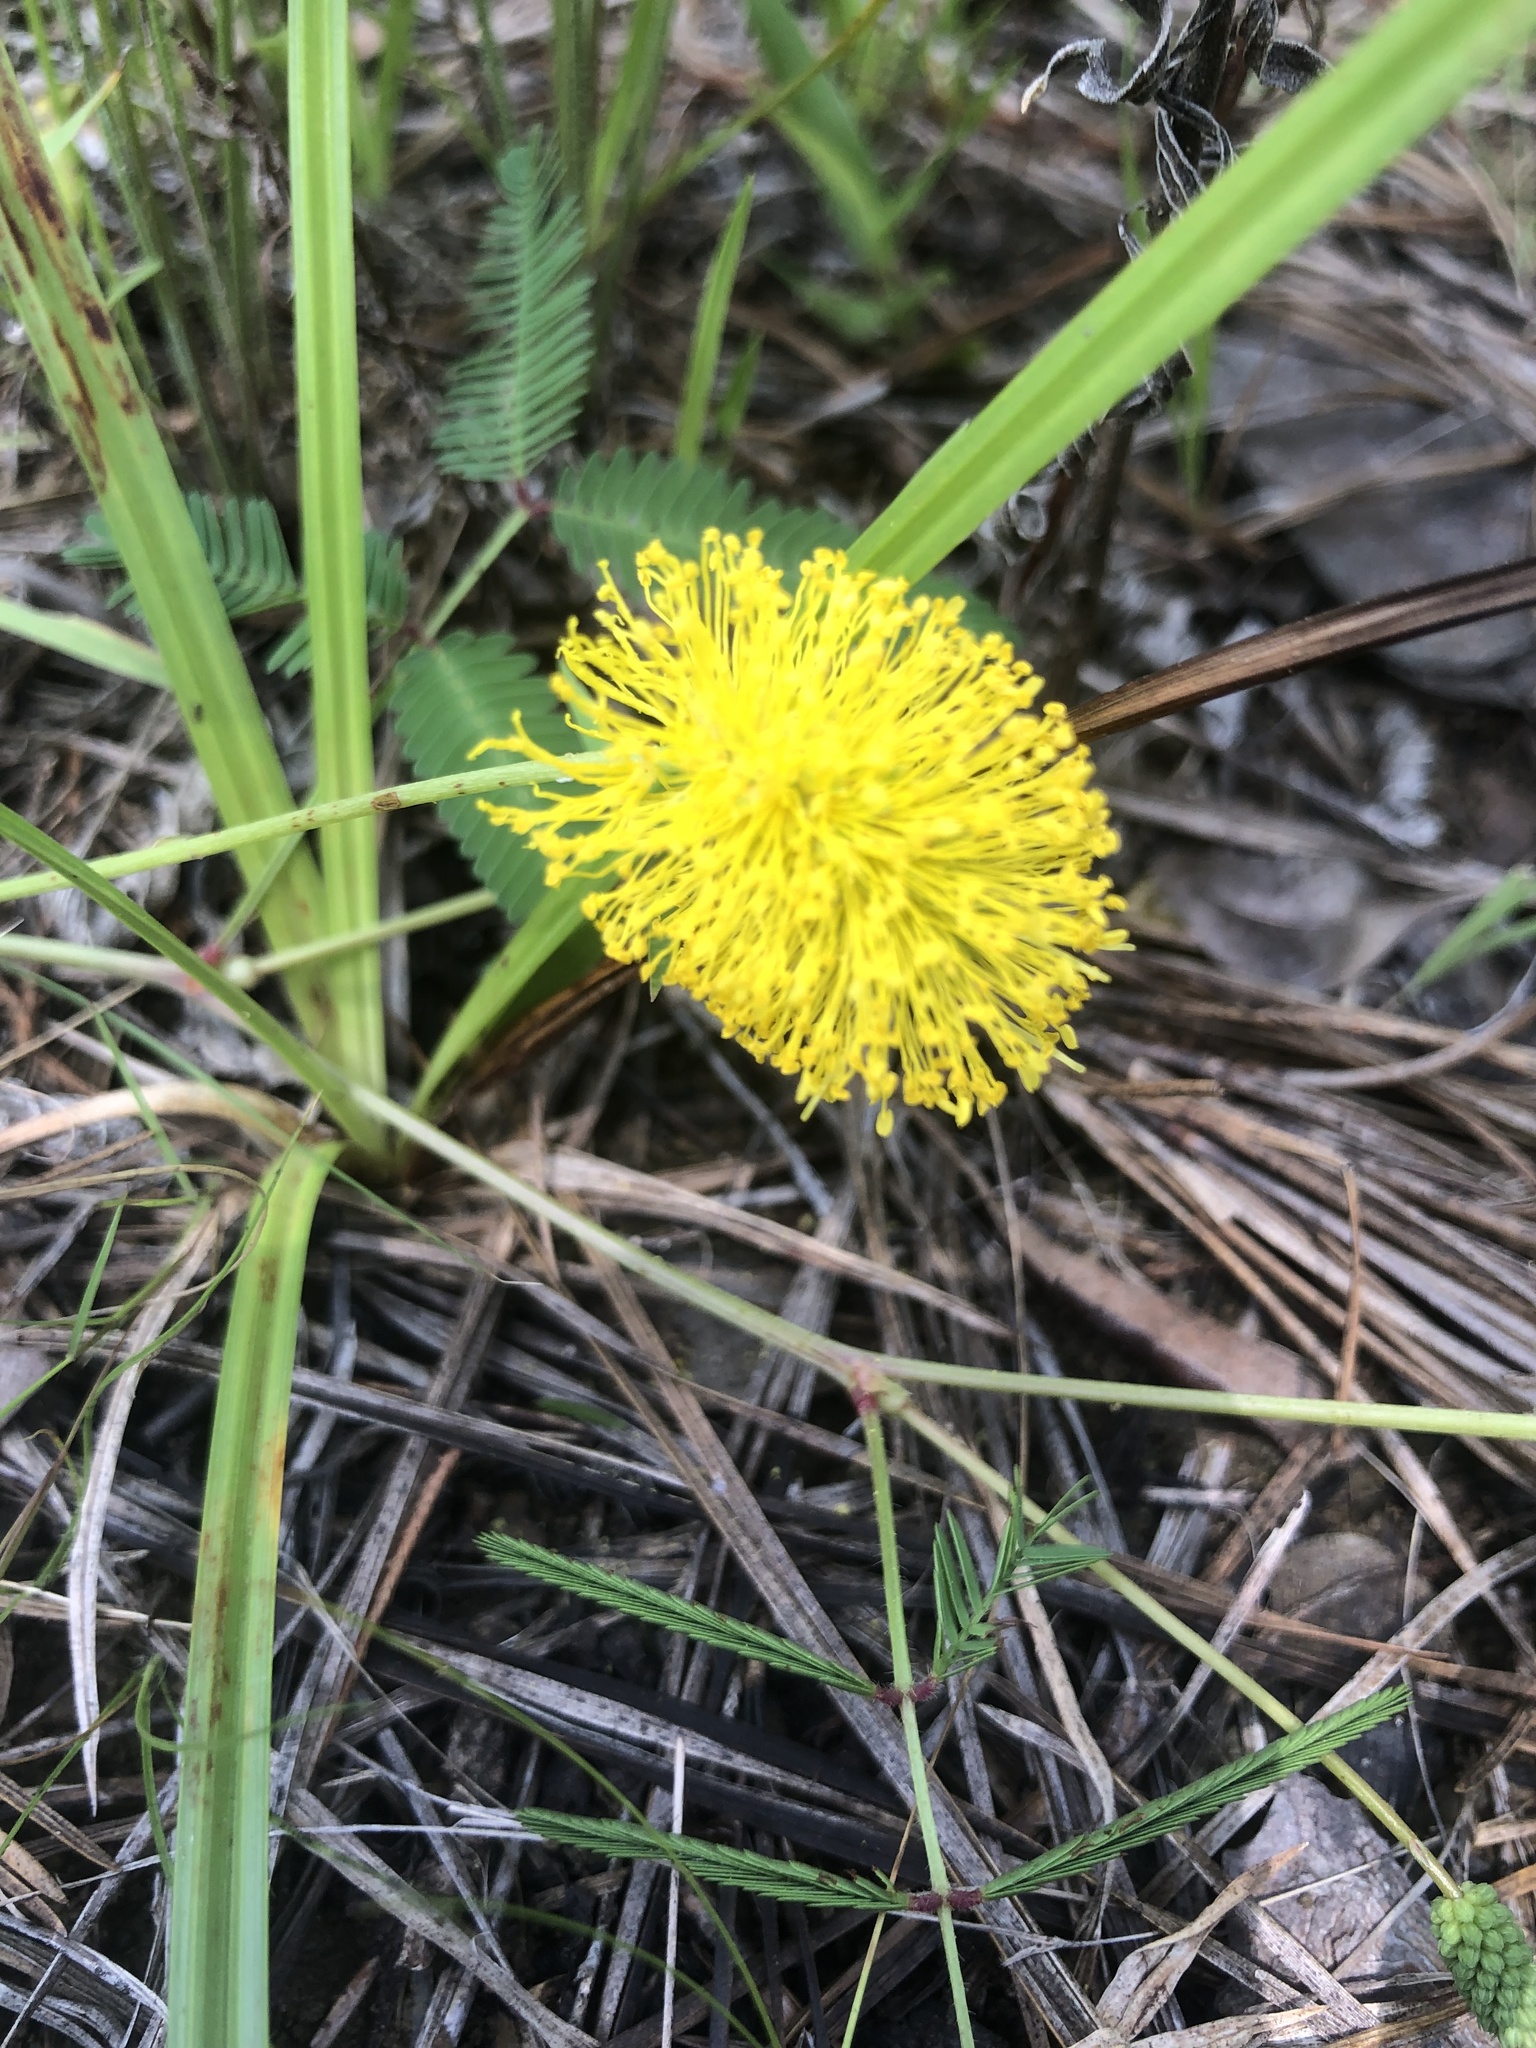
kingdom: Plantae
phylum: Tracheophyta
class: Magnoliopsida
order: Fabales
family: Fabaceae
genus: Neptunia
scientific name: Neptunia lutea
